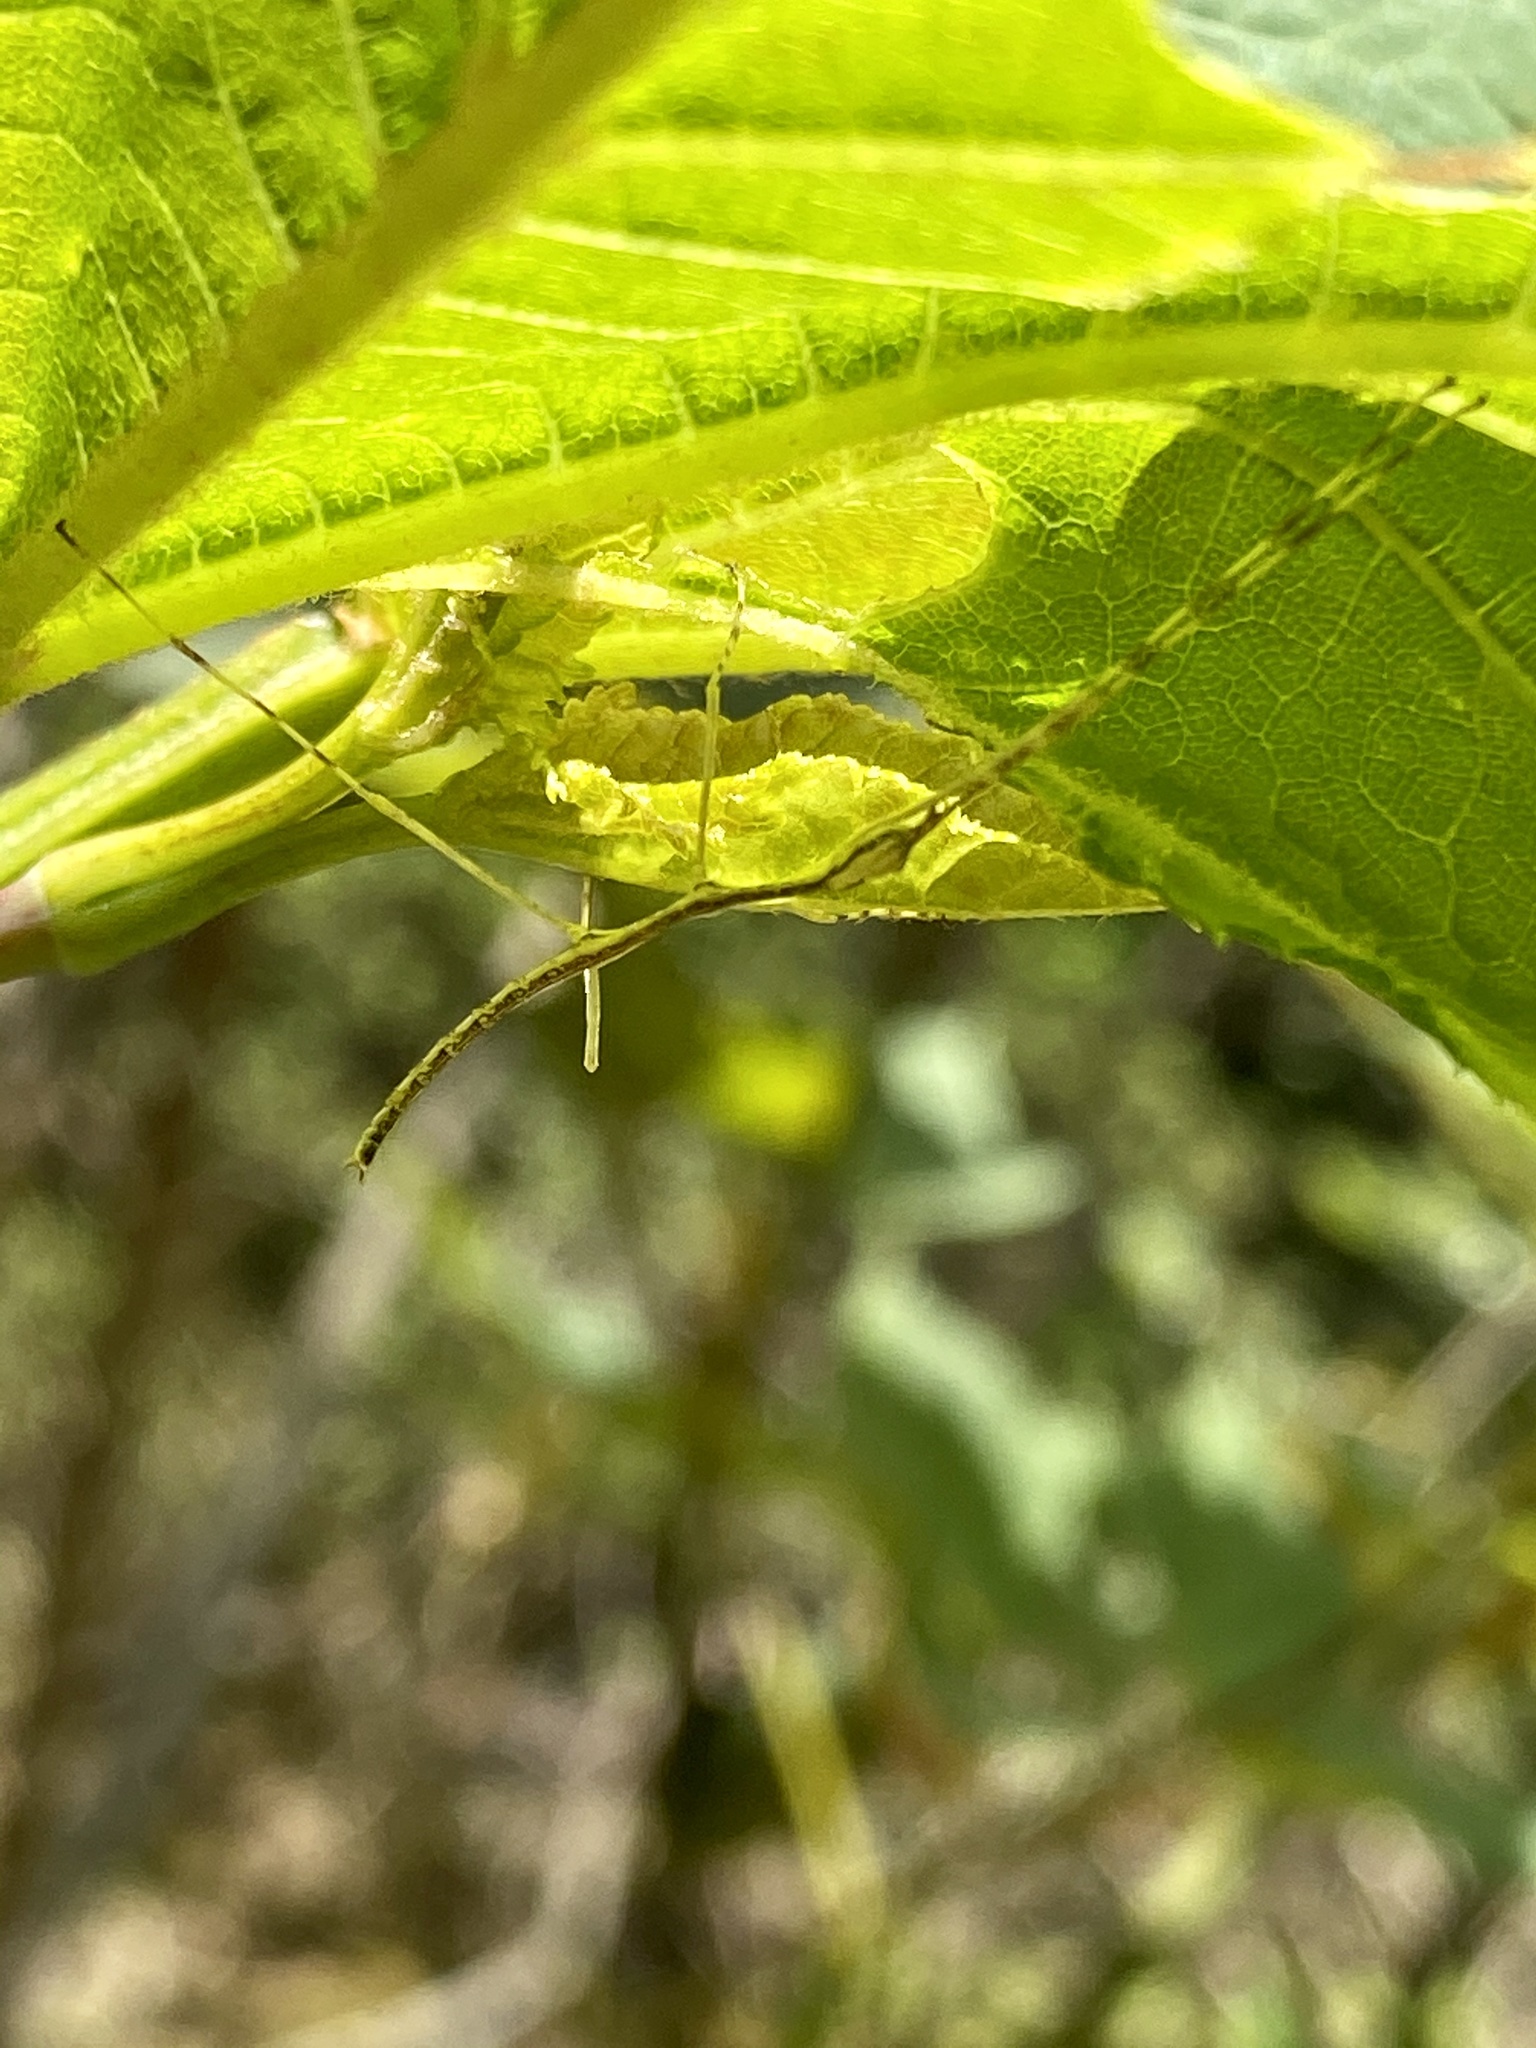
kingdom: Animalia
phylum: Arthropoda
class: Insecta
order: Phasmida
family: Phasmatidae
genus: Ramulus
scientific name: Ramulus mikado
